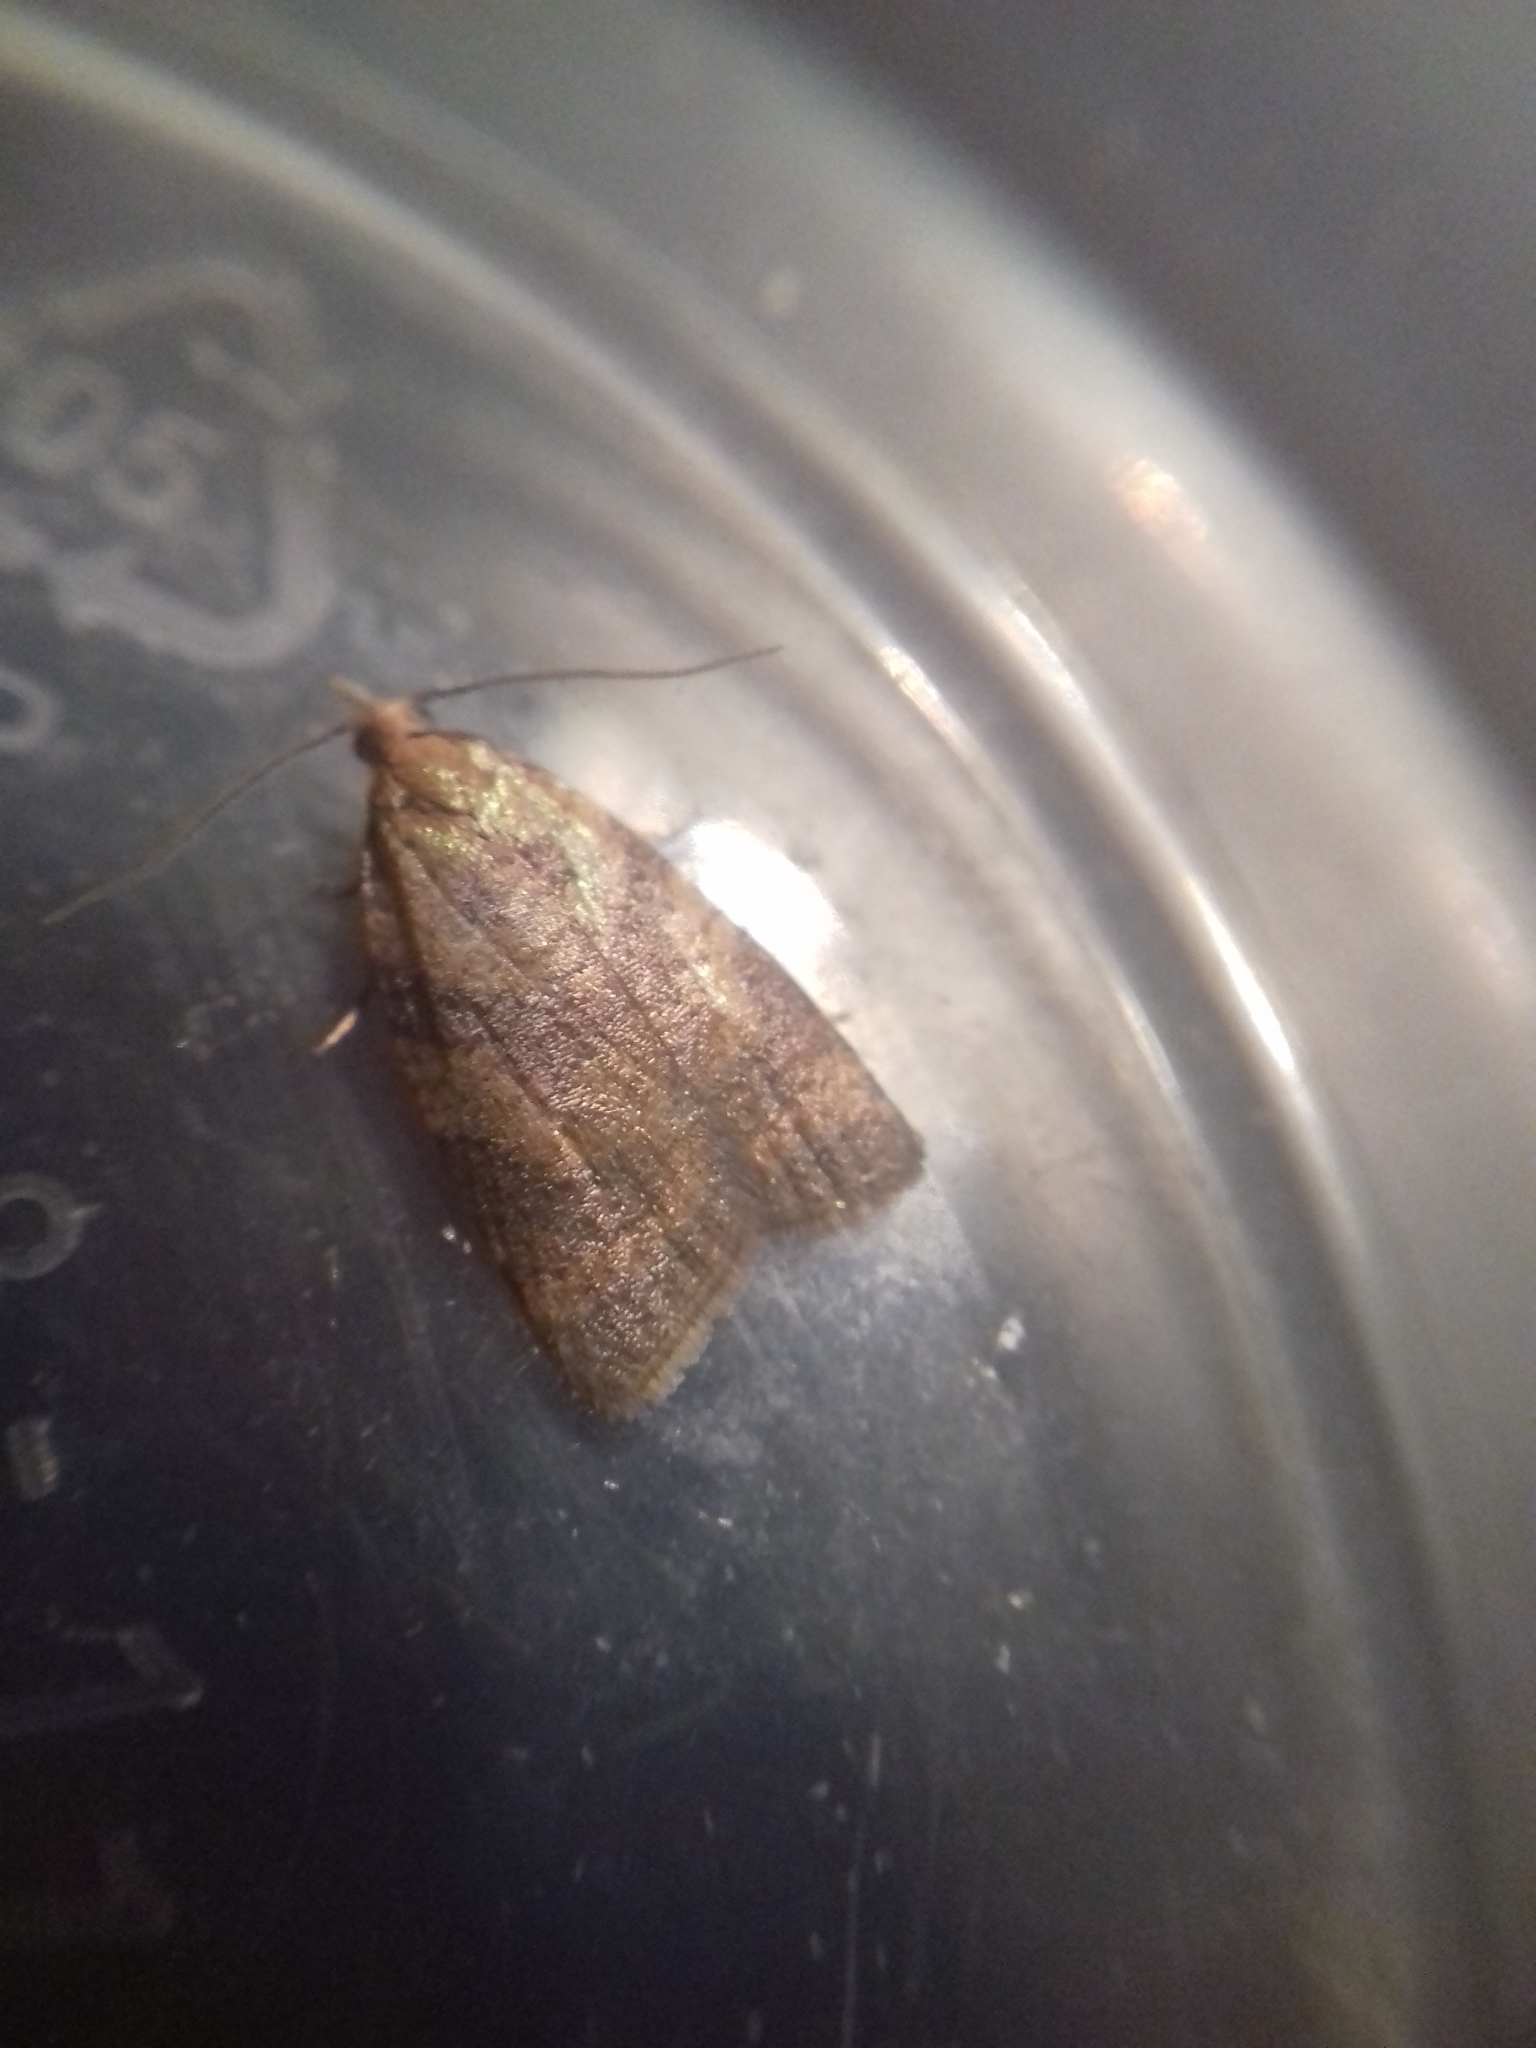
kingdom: Animalia
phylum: Arthropoda
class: Insecta
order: Lepidoptera
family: Tortricidae
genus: Sparganothis
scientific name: Sparganothis pilleriana
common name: Vine leaf-roller tortrix, long-nosed twist
